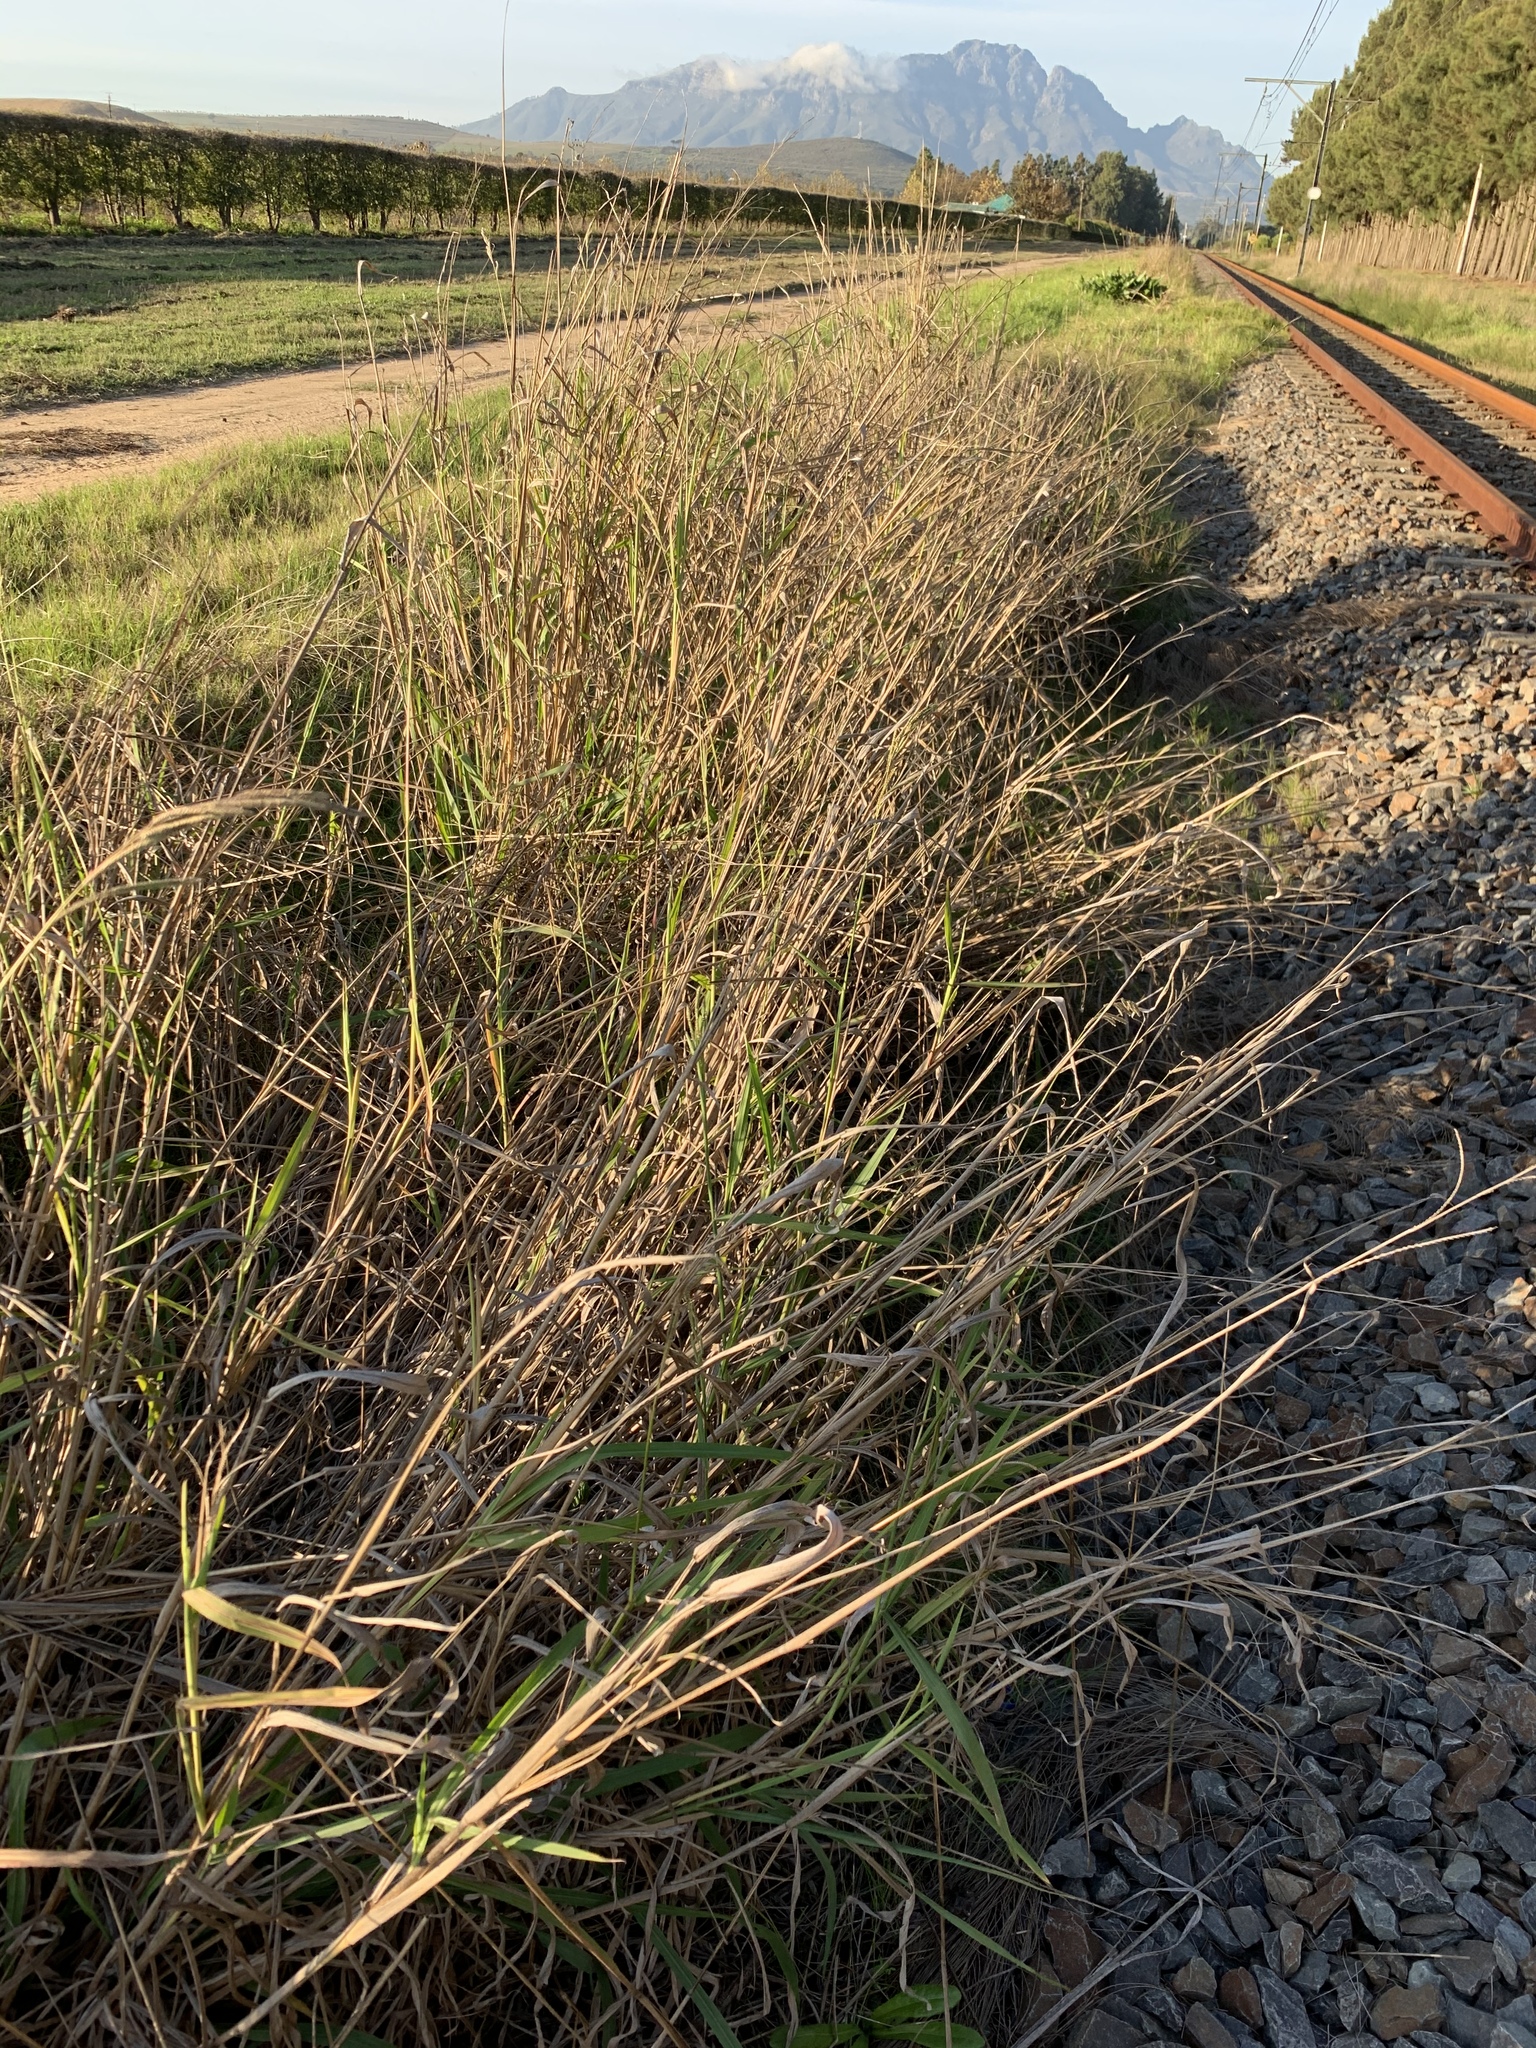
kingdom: Plantae
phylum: Tracheophyta
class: Liliopsida
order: Poales
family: Poaceae
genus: Paspalum
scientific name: Paspalum urvillei
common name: Vasey's grass
